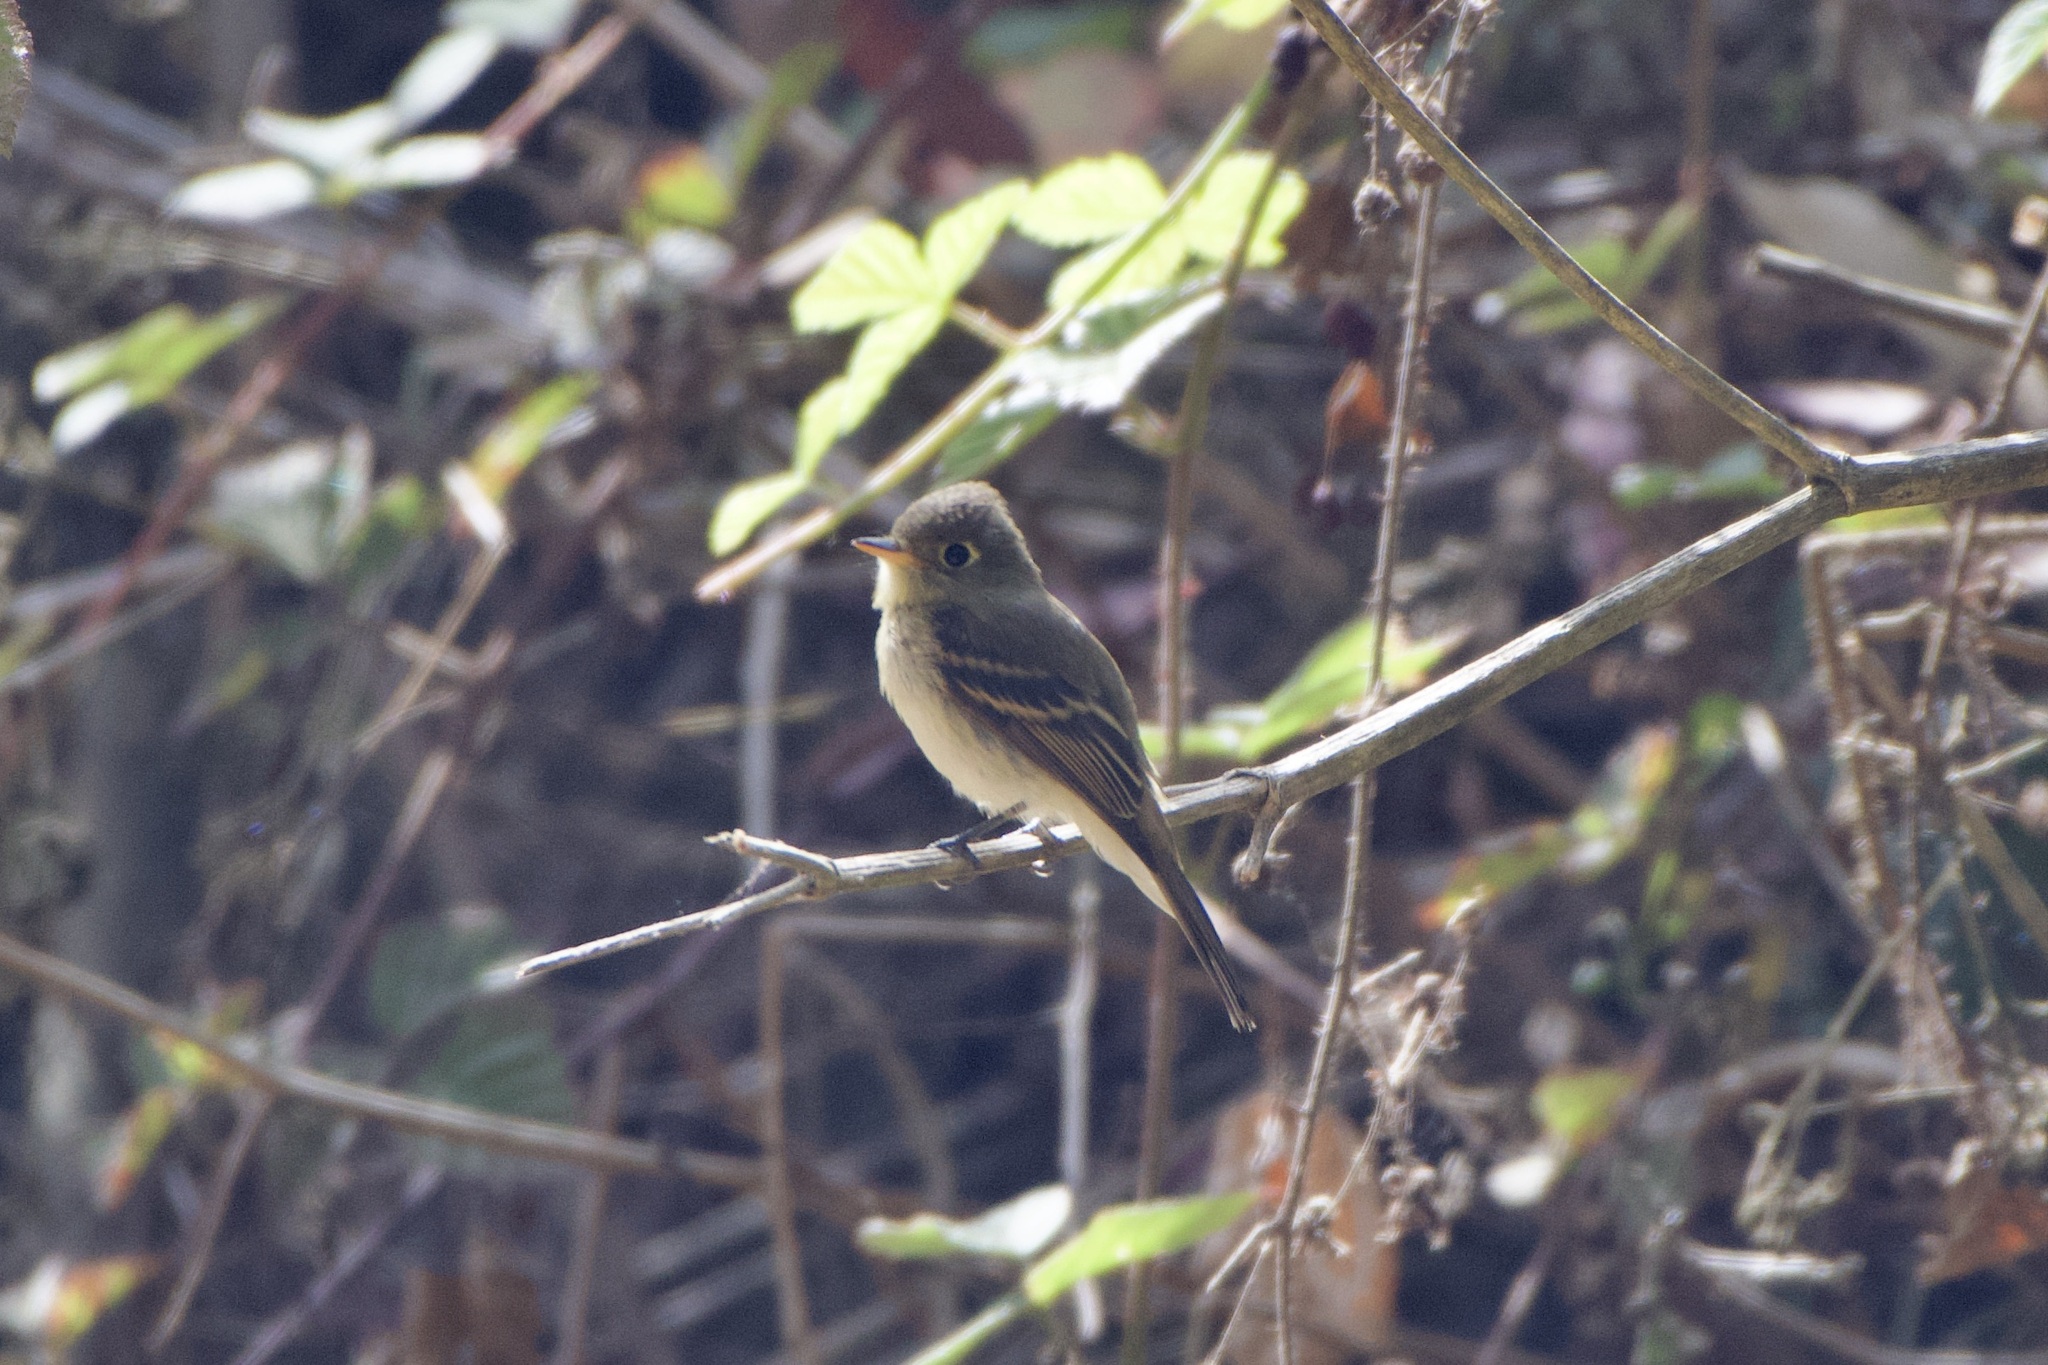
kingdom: Animalia
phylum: Chordata
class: Aves
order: Passeriformes
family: Tyrannidae
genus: Empidonax
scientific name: Empidonax difficilis
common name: Pacific-slope flycatcher
